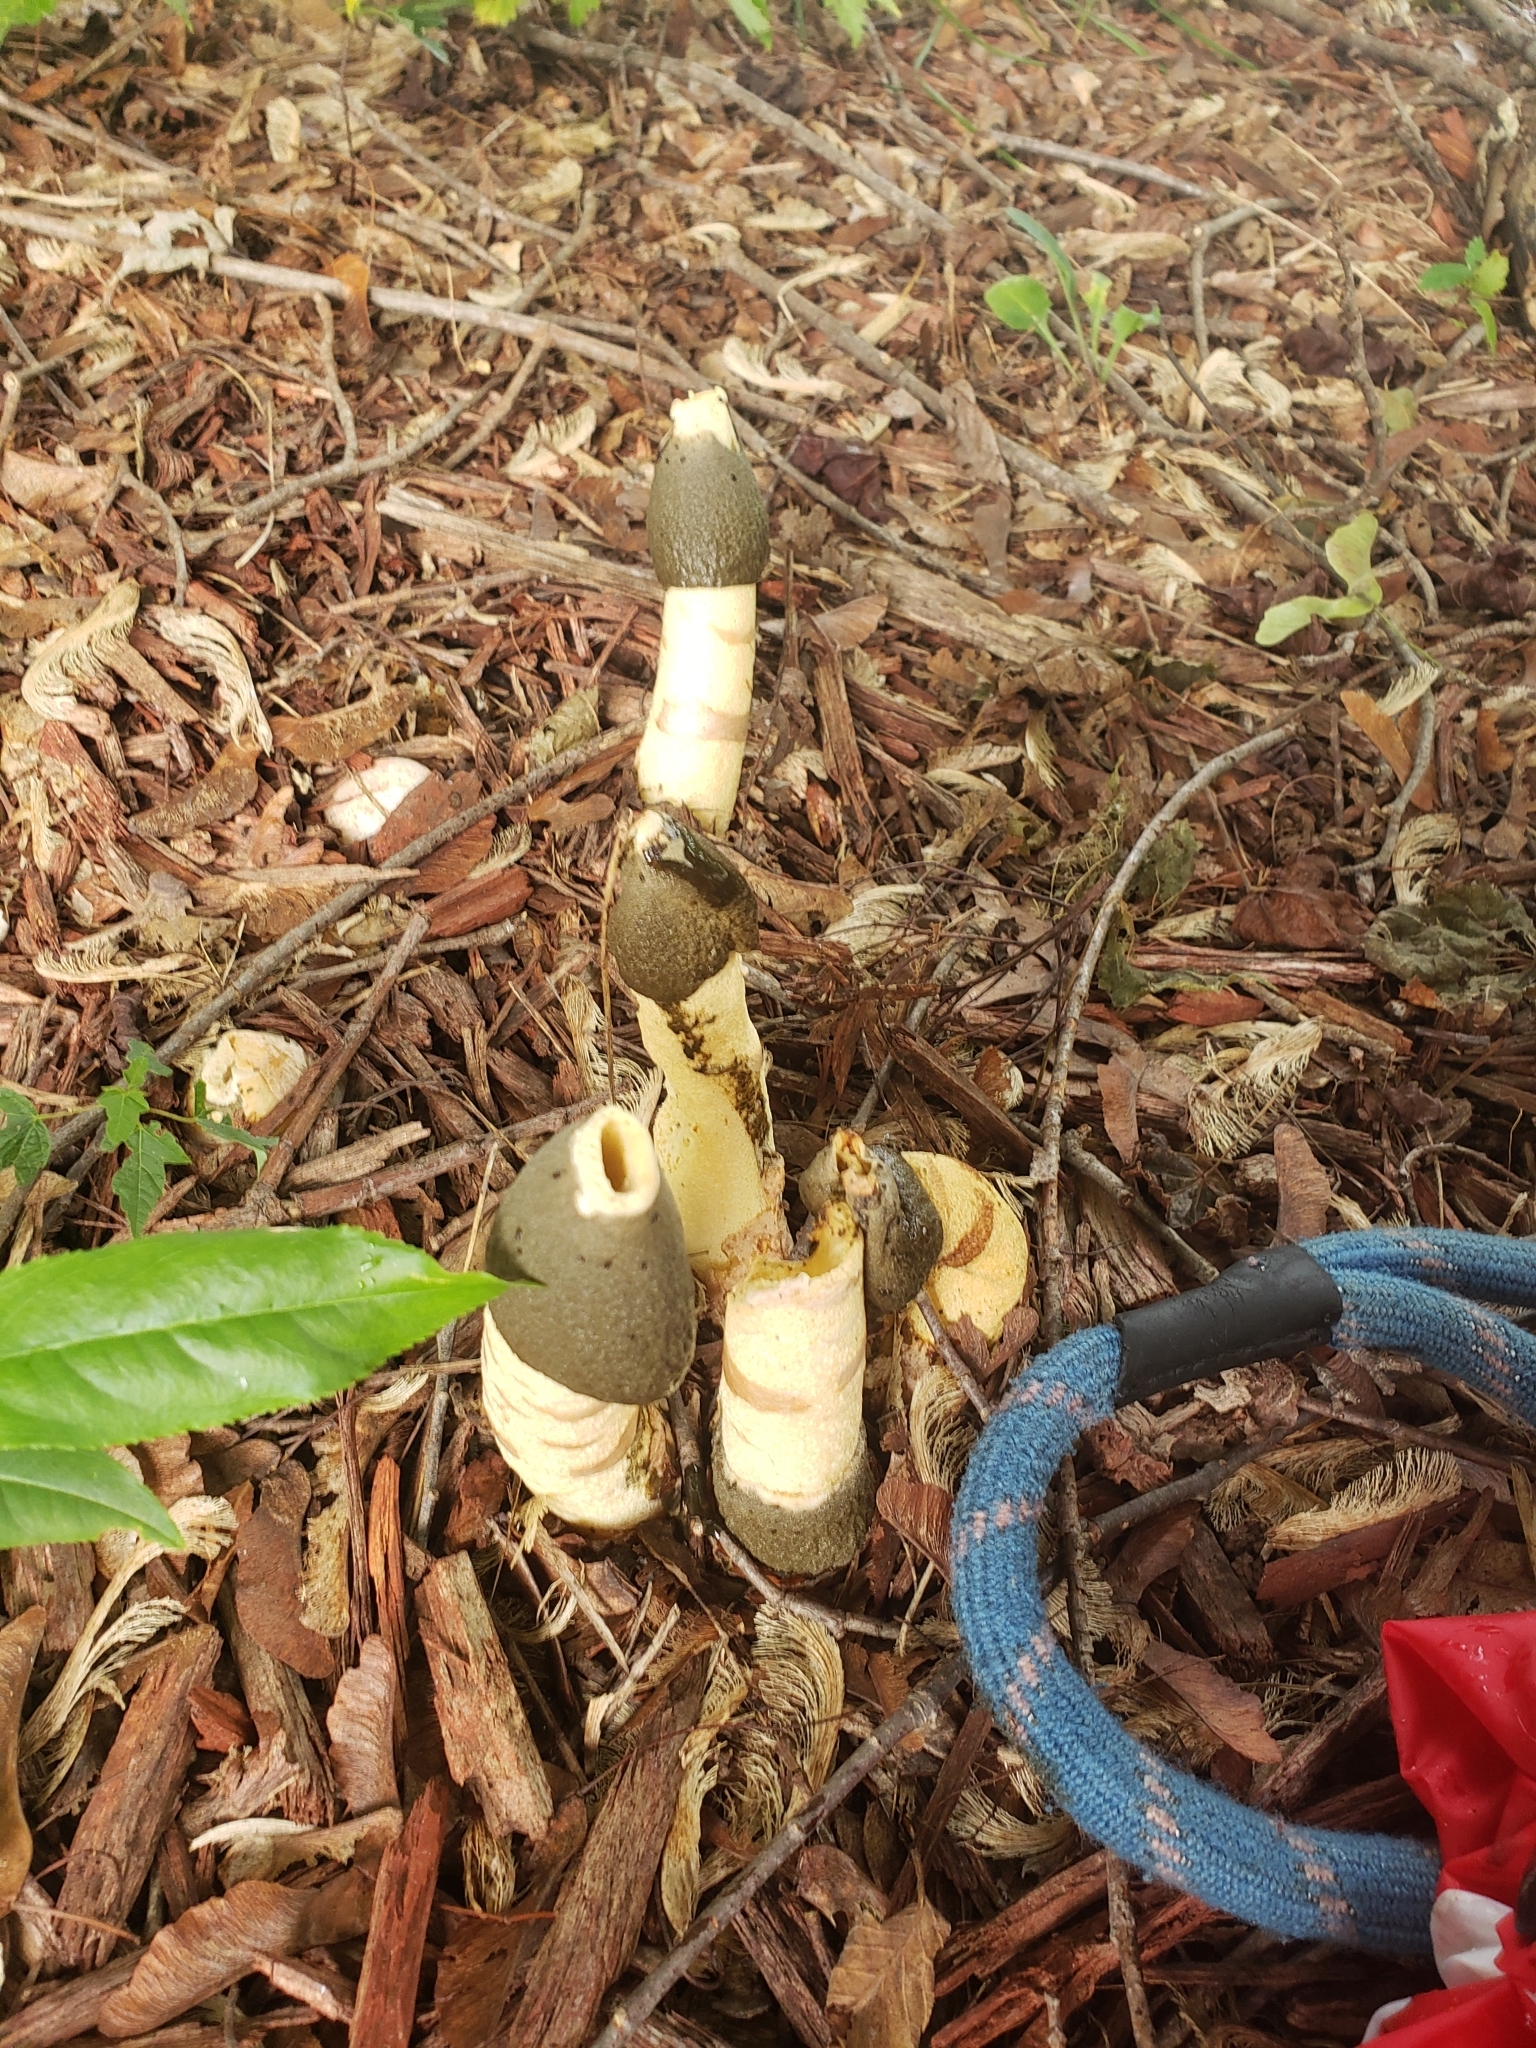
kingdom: Fungi
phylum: Basidiomycota
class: Agaricomycetes
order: Phallales
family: Phallaceae
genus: Phallus
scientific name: Phallus ravenelii
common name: Ravenel's stinkhorn
